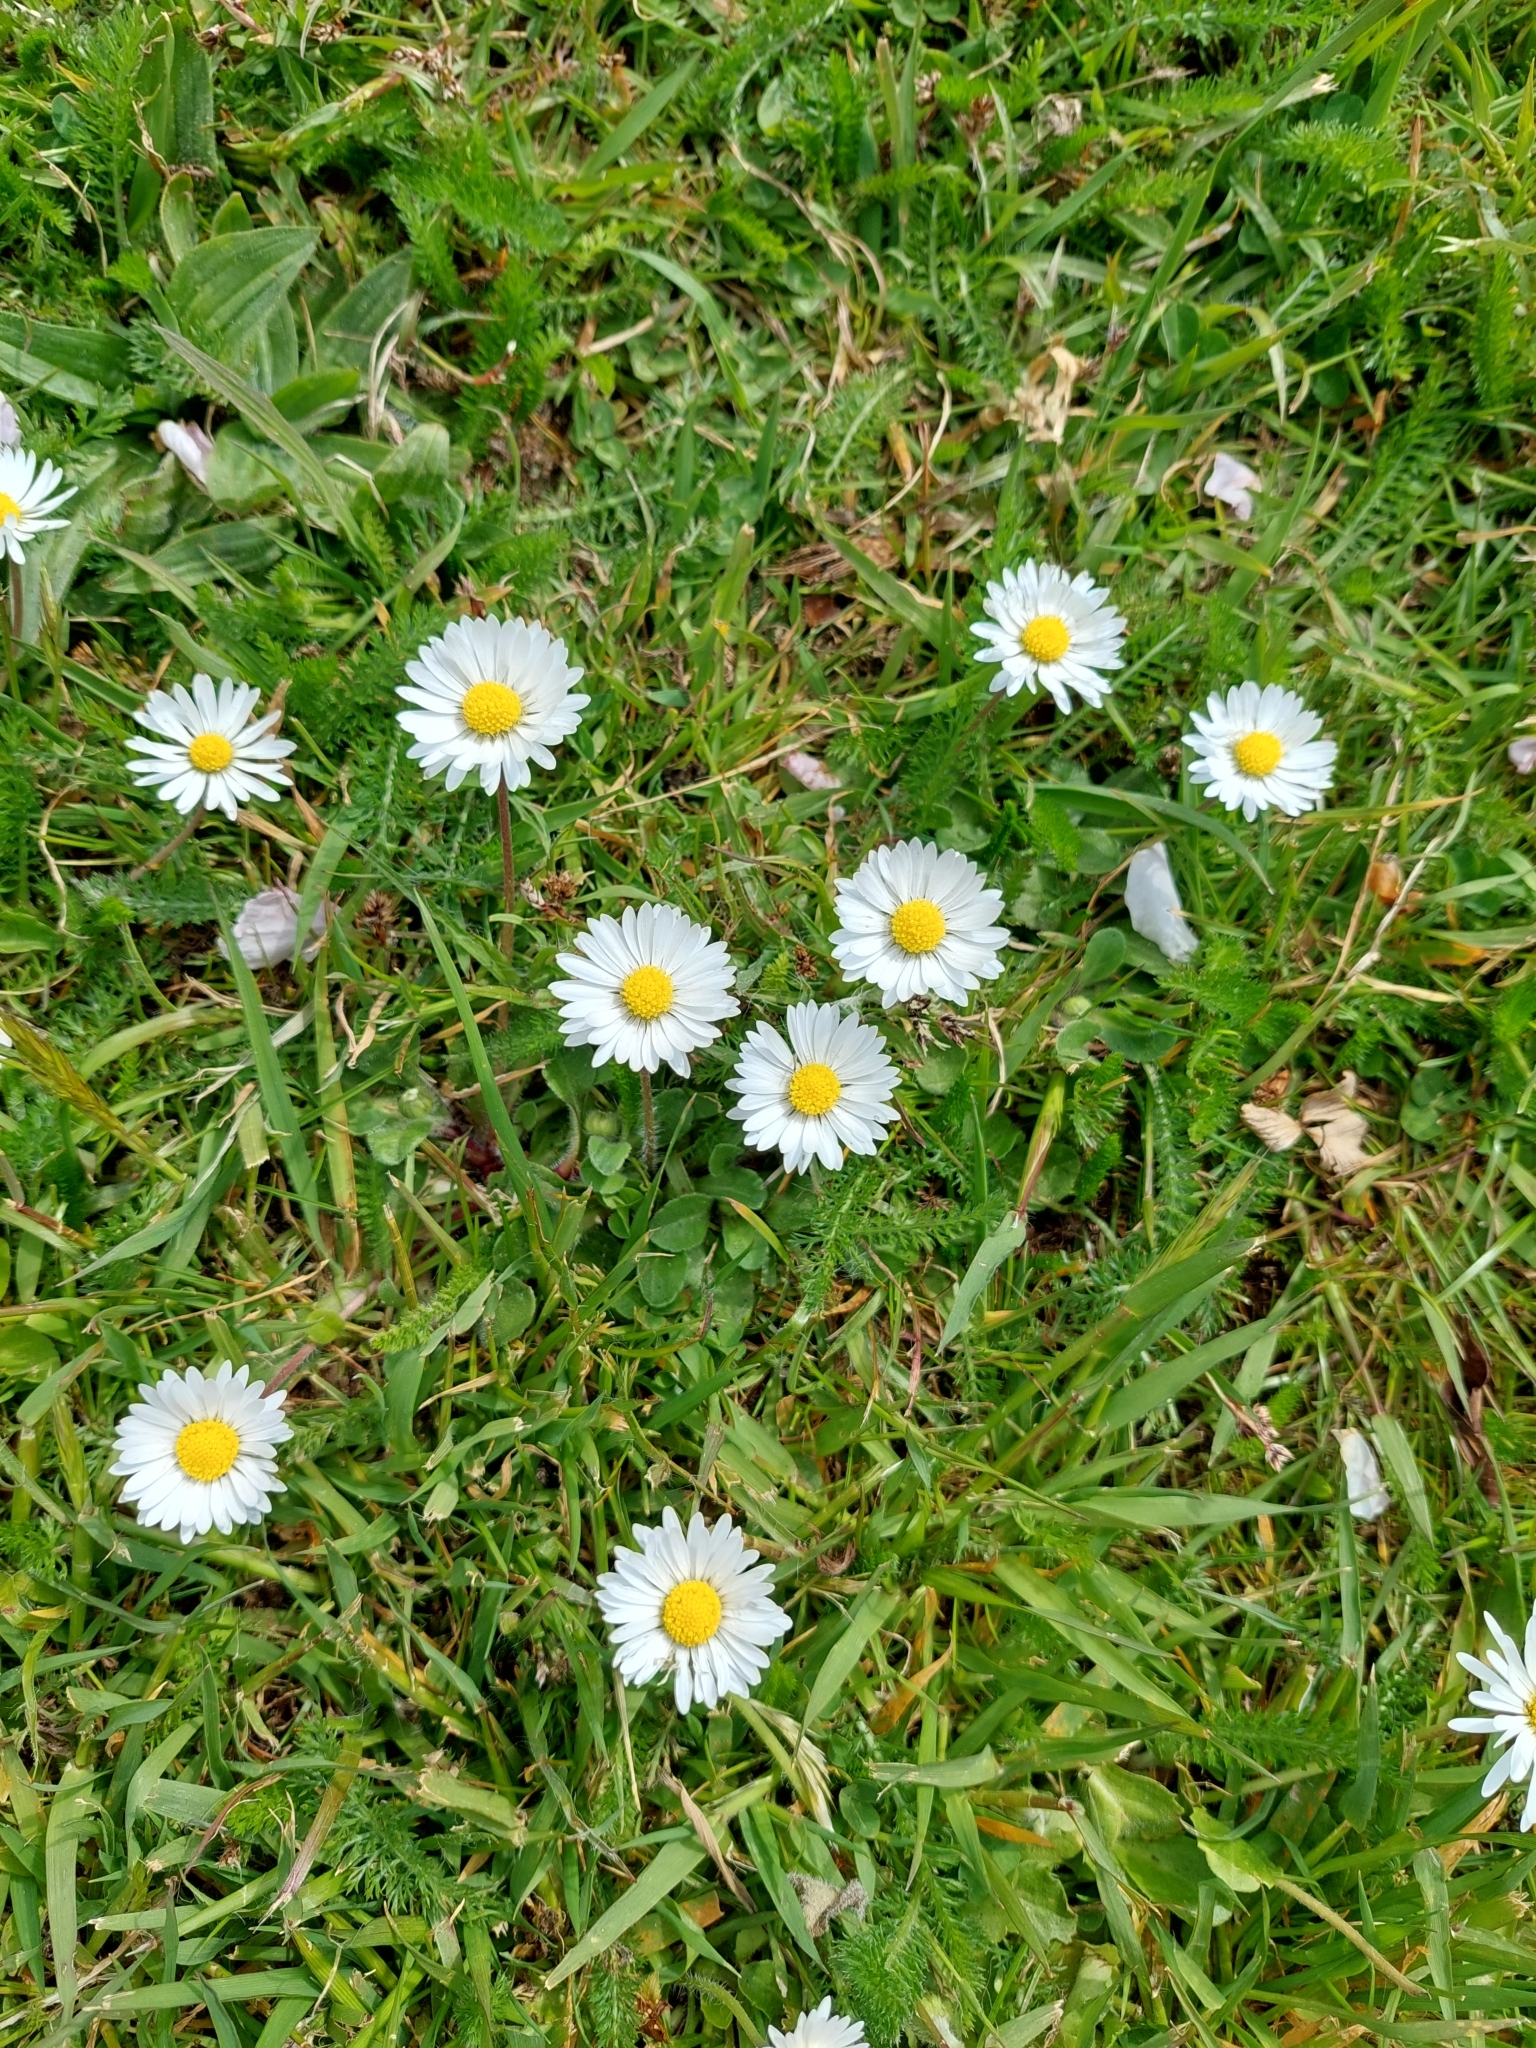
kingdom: Plantae
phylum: Tracheophyta
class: Magnoliopsida
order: Asterales
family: Asteraceae
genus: Bellis
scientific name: Bellis perennis
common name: Lawndaisy
